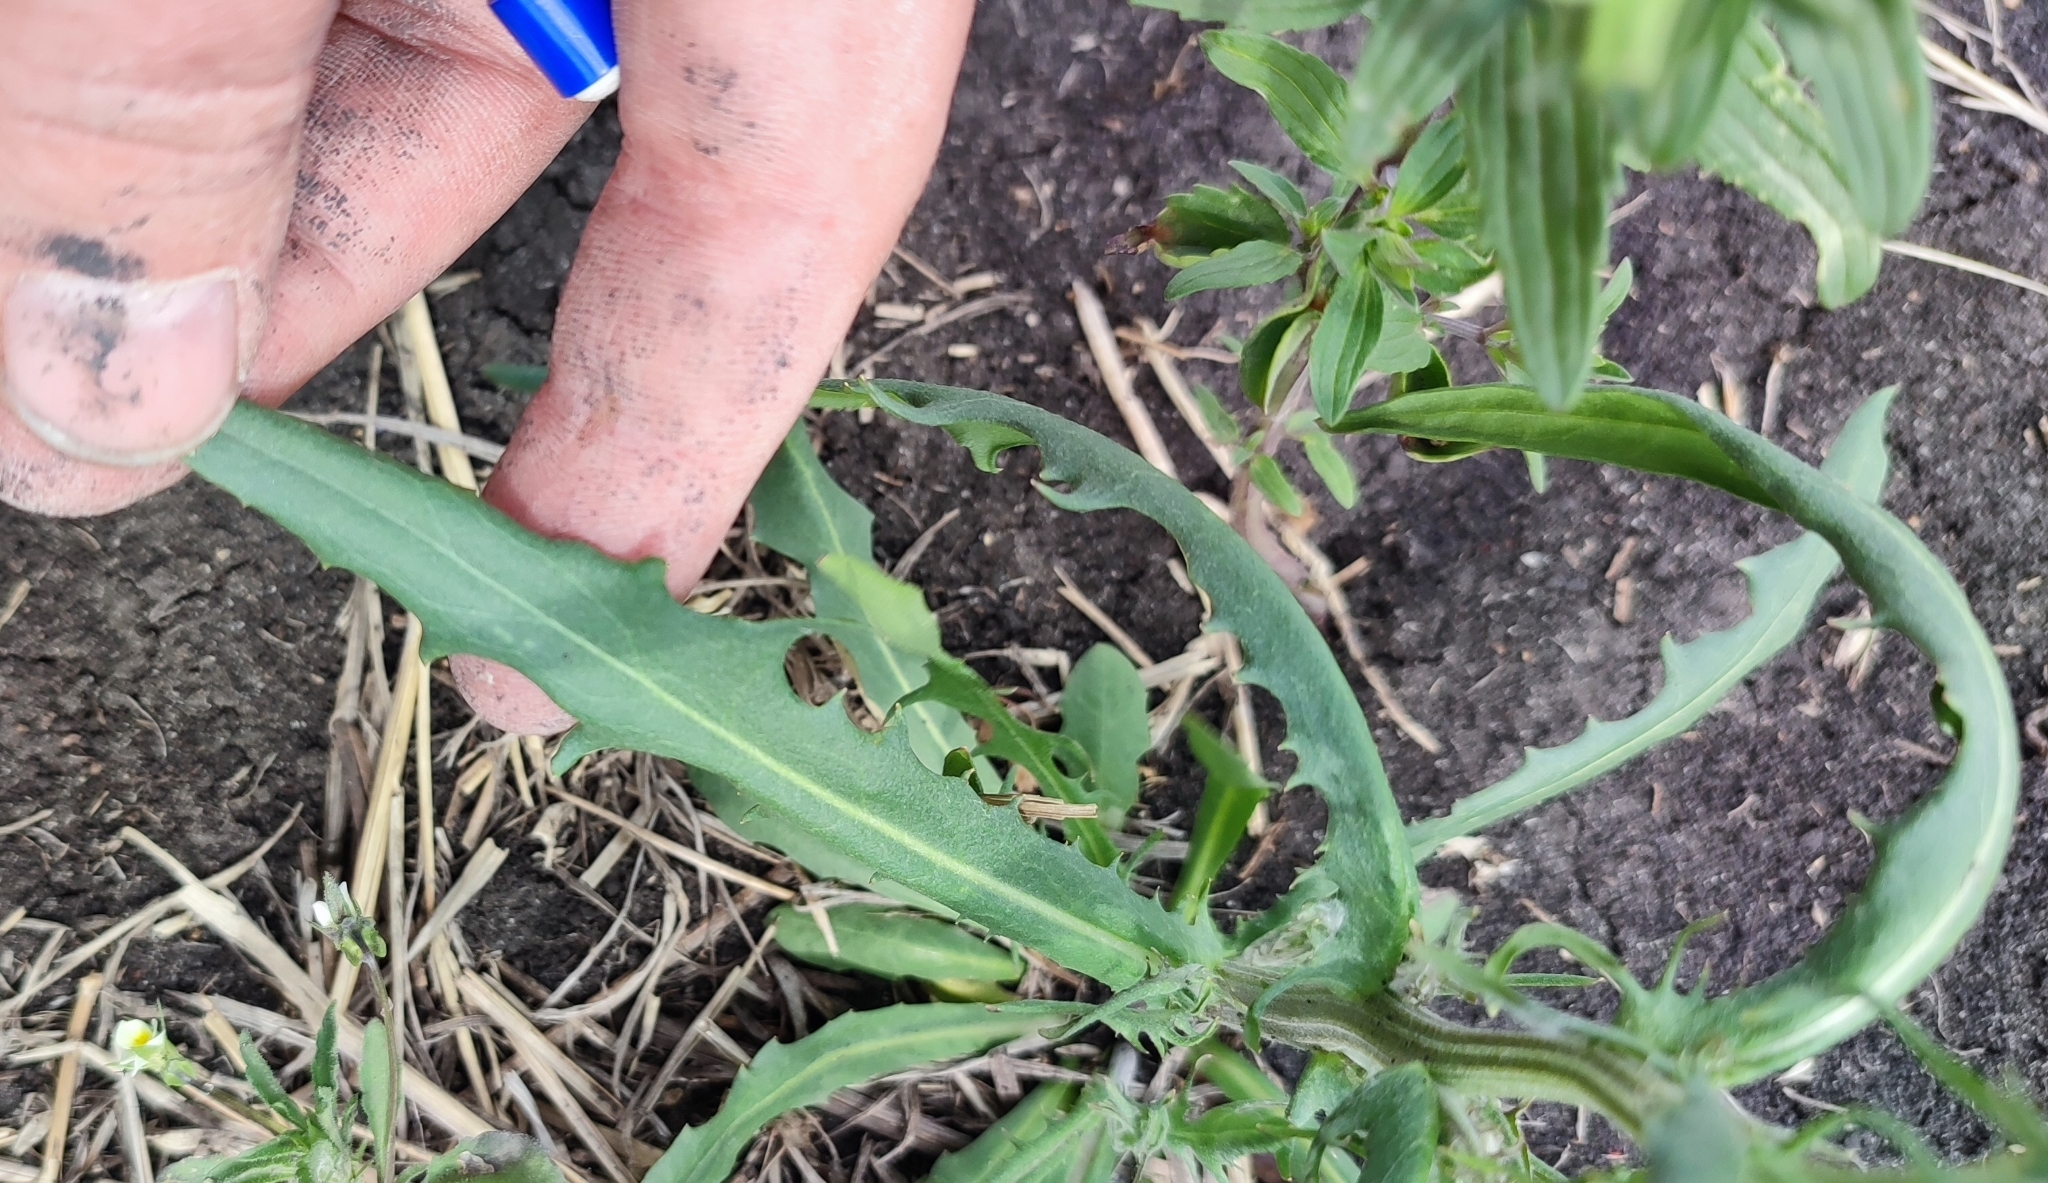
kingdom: Plantae
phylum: Tracheophyta
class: Magnoliopsida
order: Asterales
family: Asteraceae
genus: Crepis
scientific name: Crepis tectorum
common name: Narrow-leaved hawk's-beard
